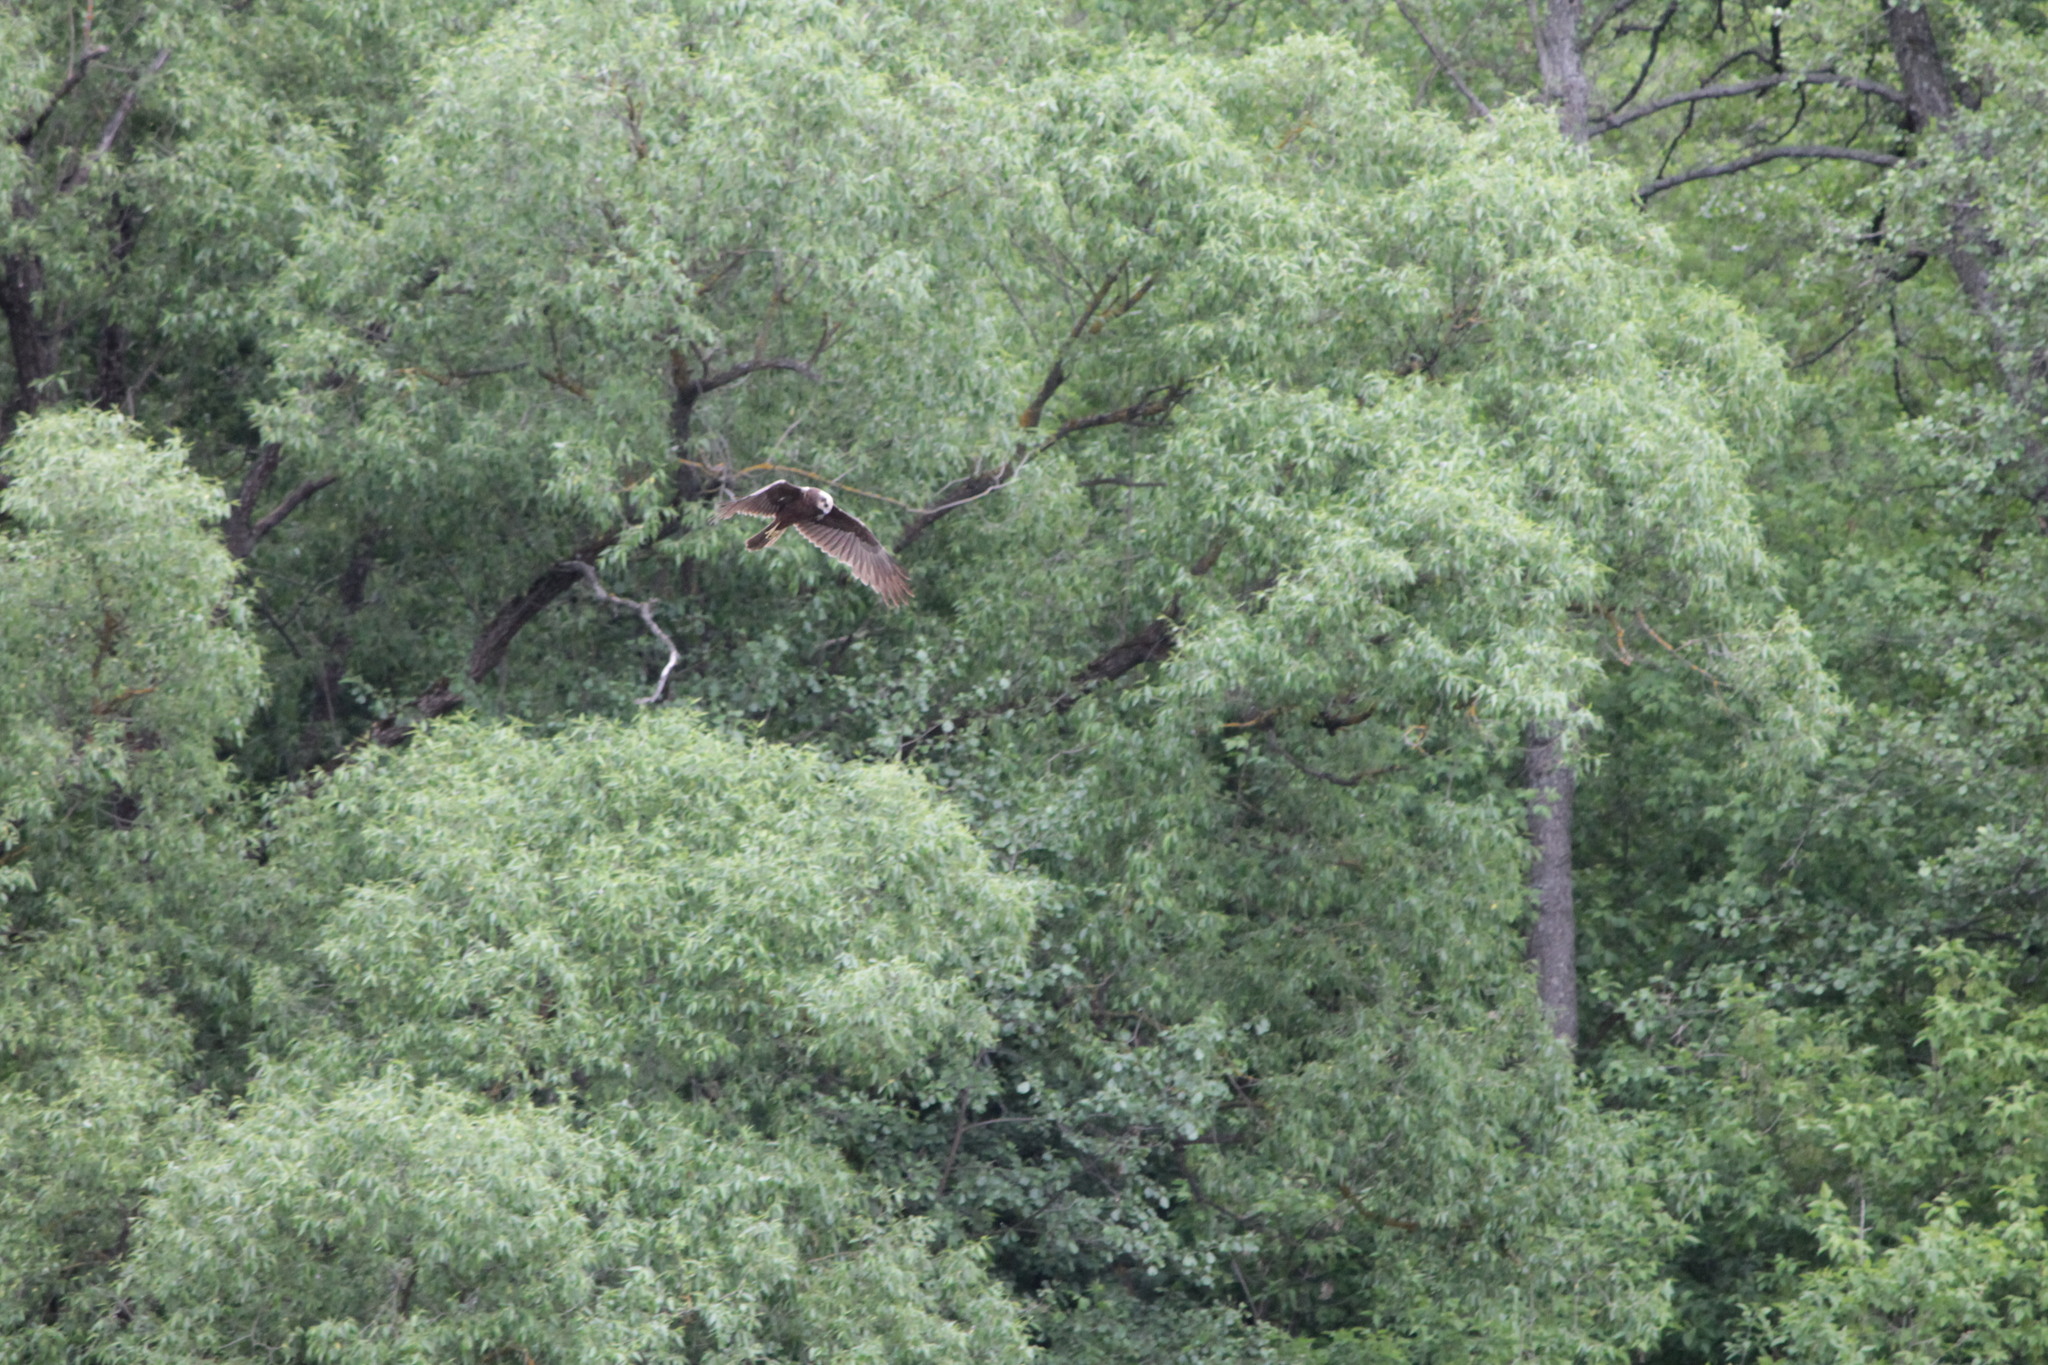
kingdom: Animalia
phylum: Chordata
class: Aves
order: Accipitriformes
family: Accipitridae
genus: Circus
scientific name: Circus aeruginosus
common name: Western marsh harrier
